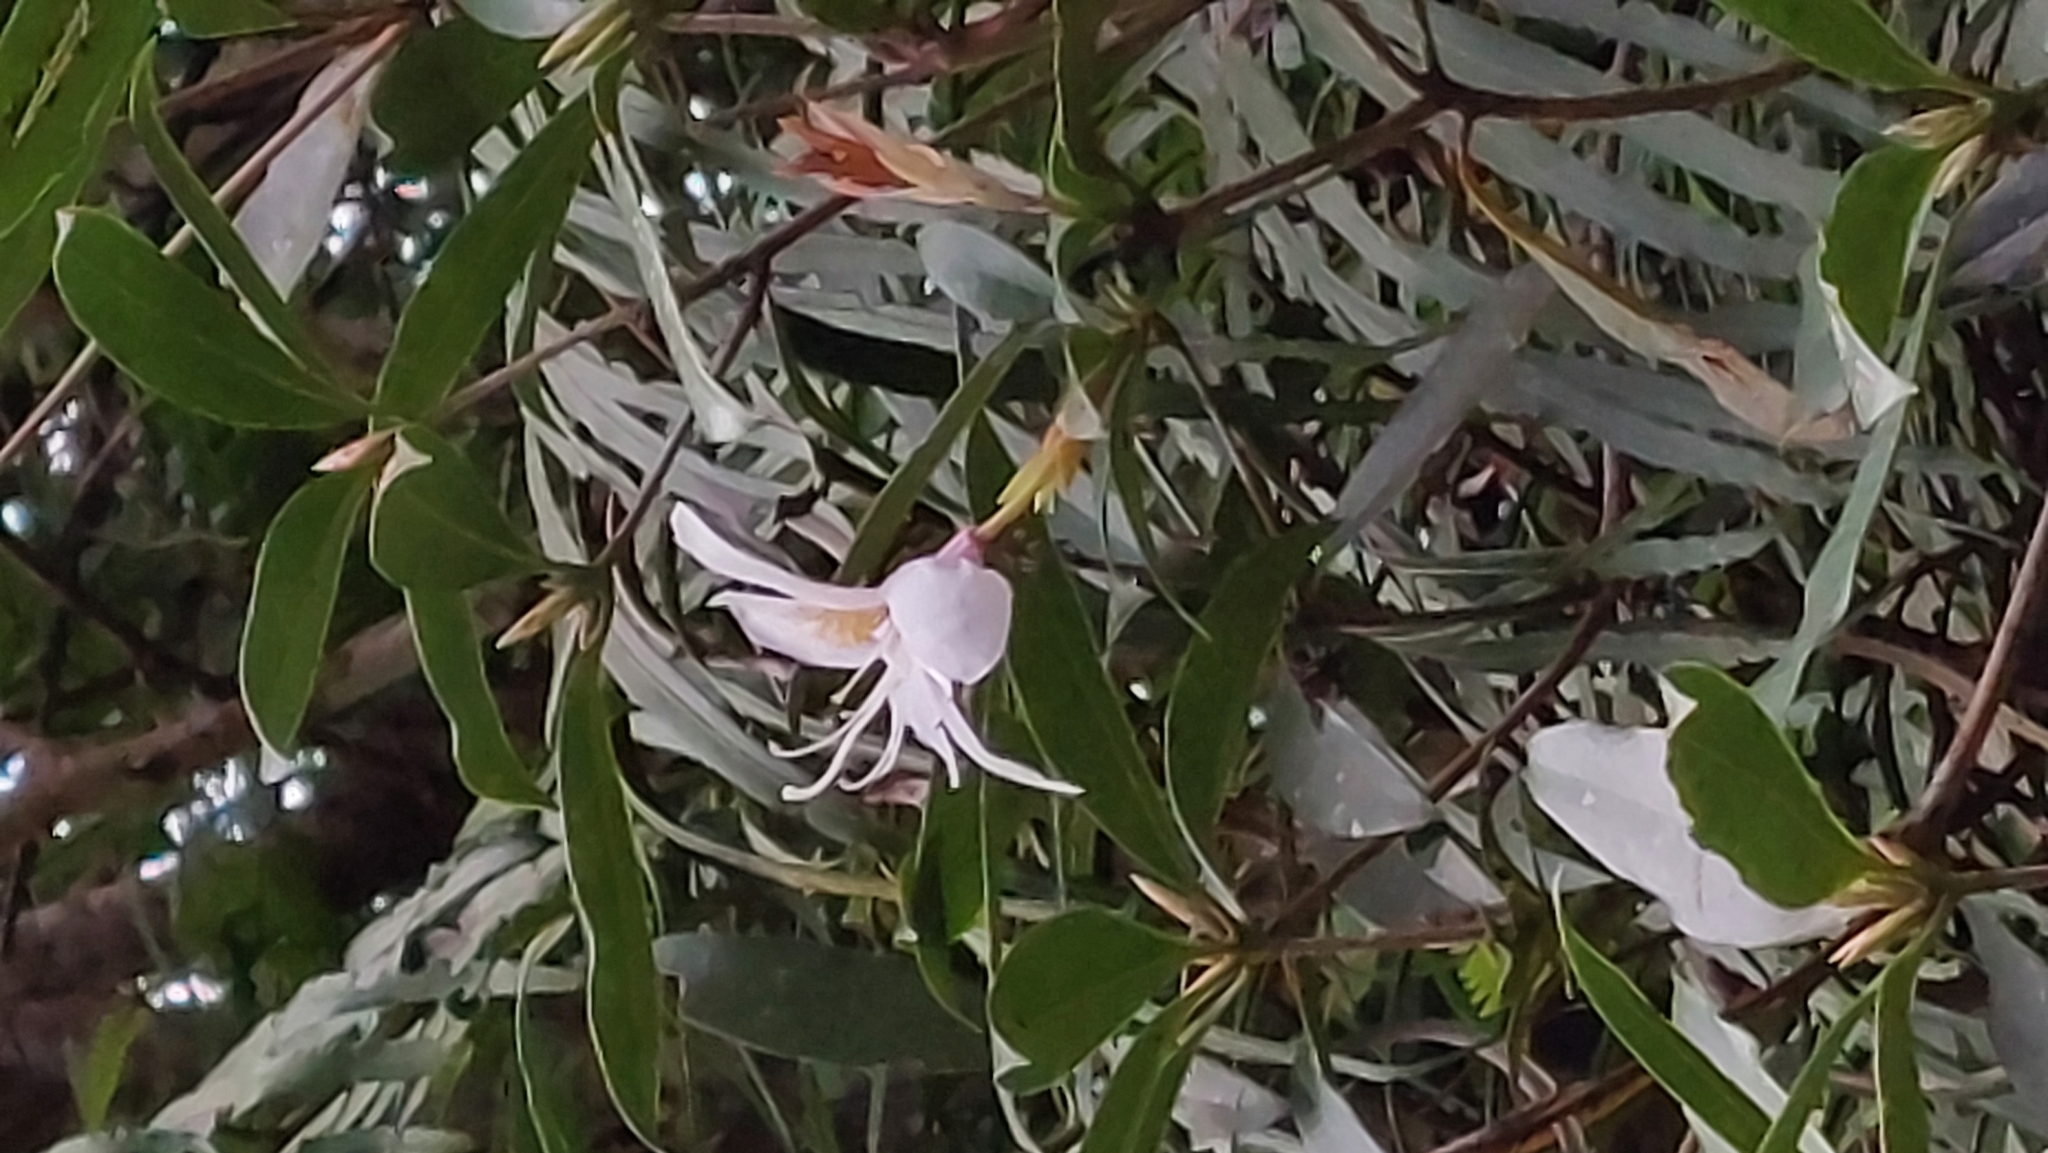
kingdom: Plantae
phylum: Tracheophyta
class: Magnoliopsida
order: Ericales
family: Ericaceae
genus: Rhododendron
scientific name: Rhododendron latoucheae
